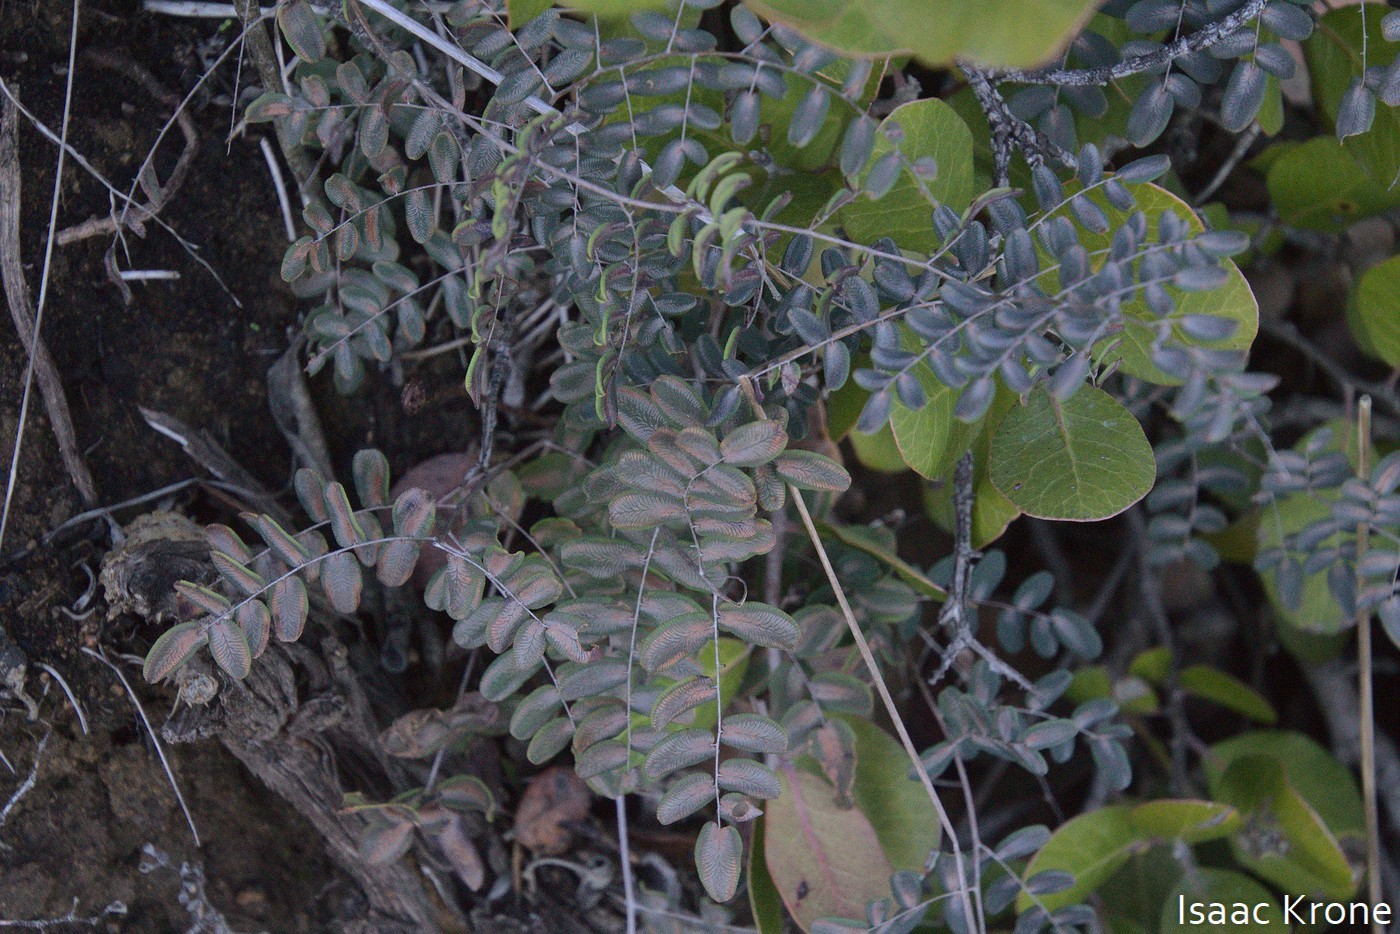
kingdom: Plantae
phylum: Tracheophyta
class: Polypodiopsida
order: Polypodiales
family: Pteridaceae
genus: Pellaea
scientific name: Pellaea andromedifolia
